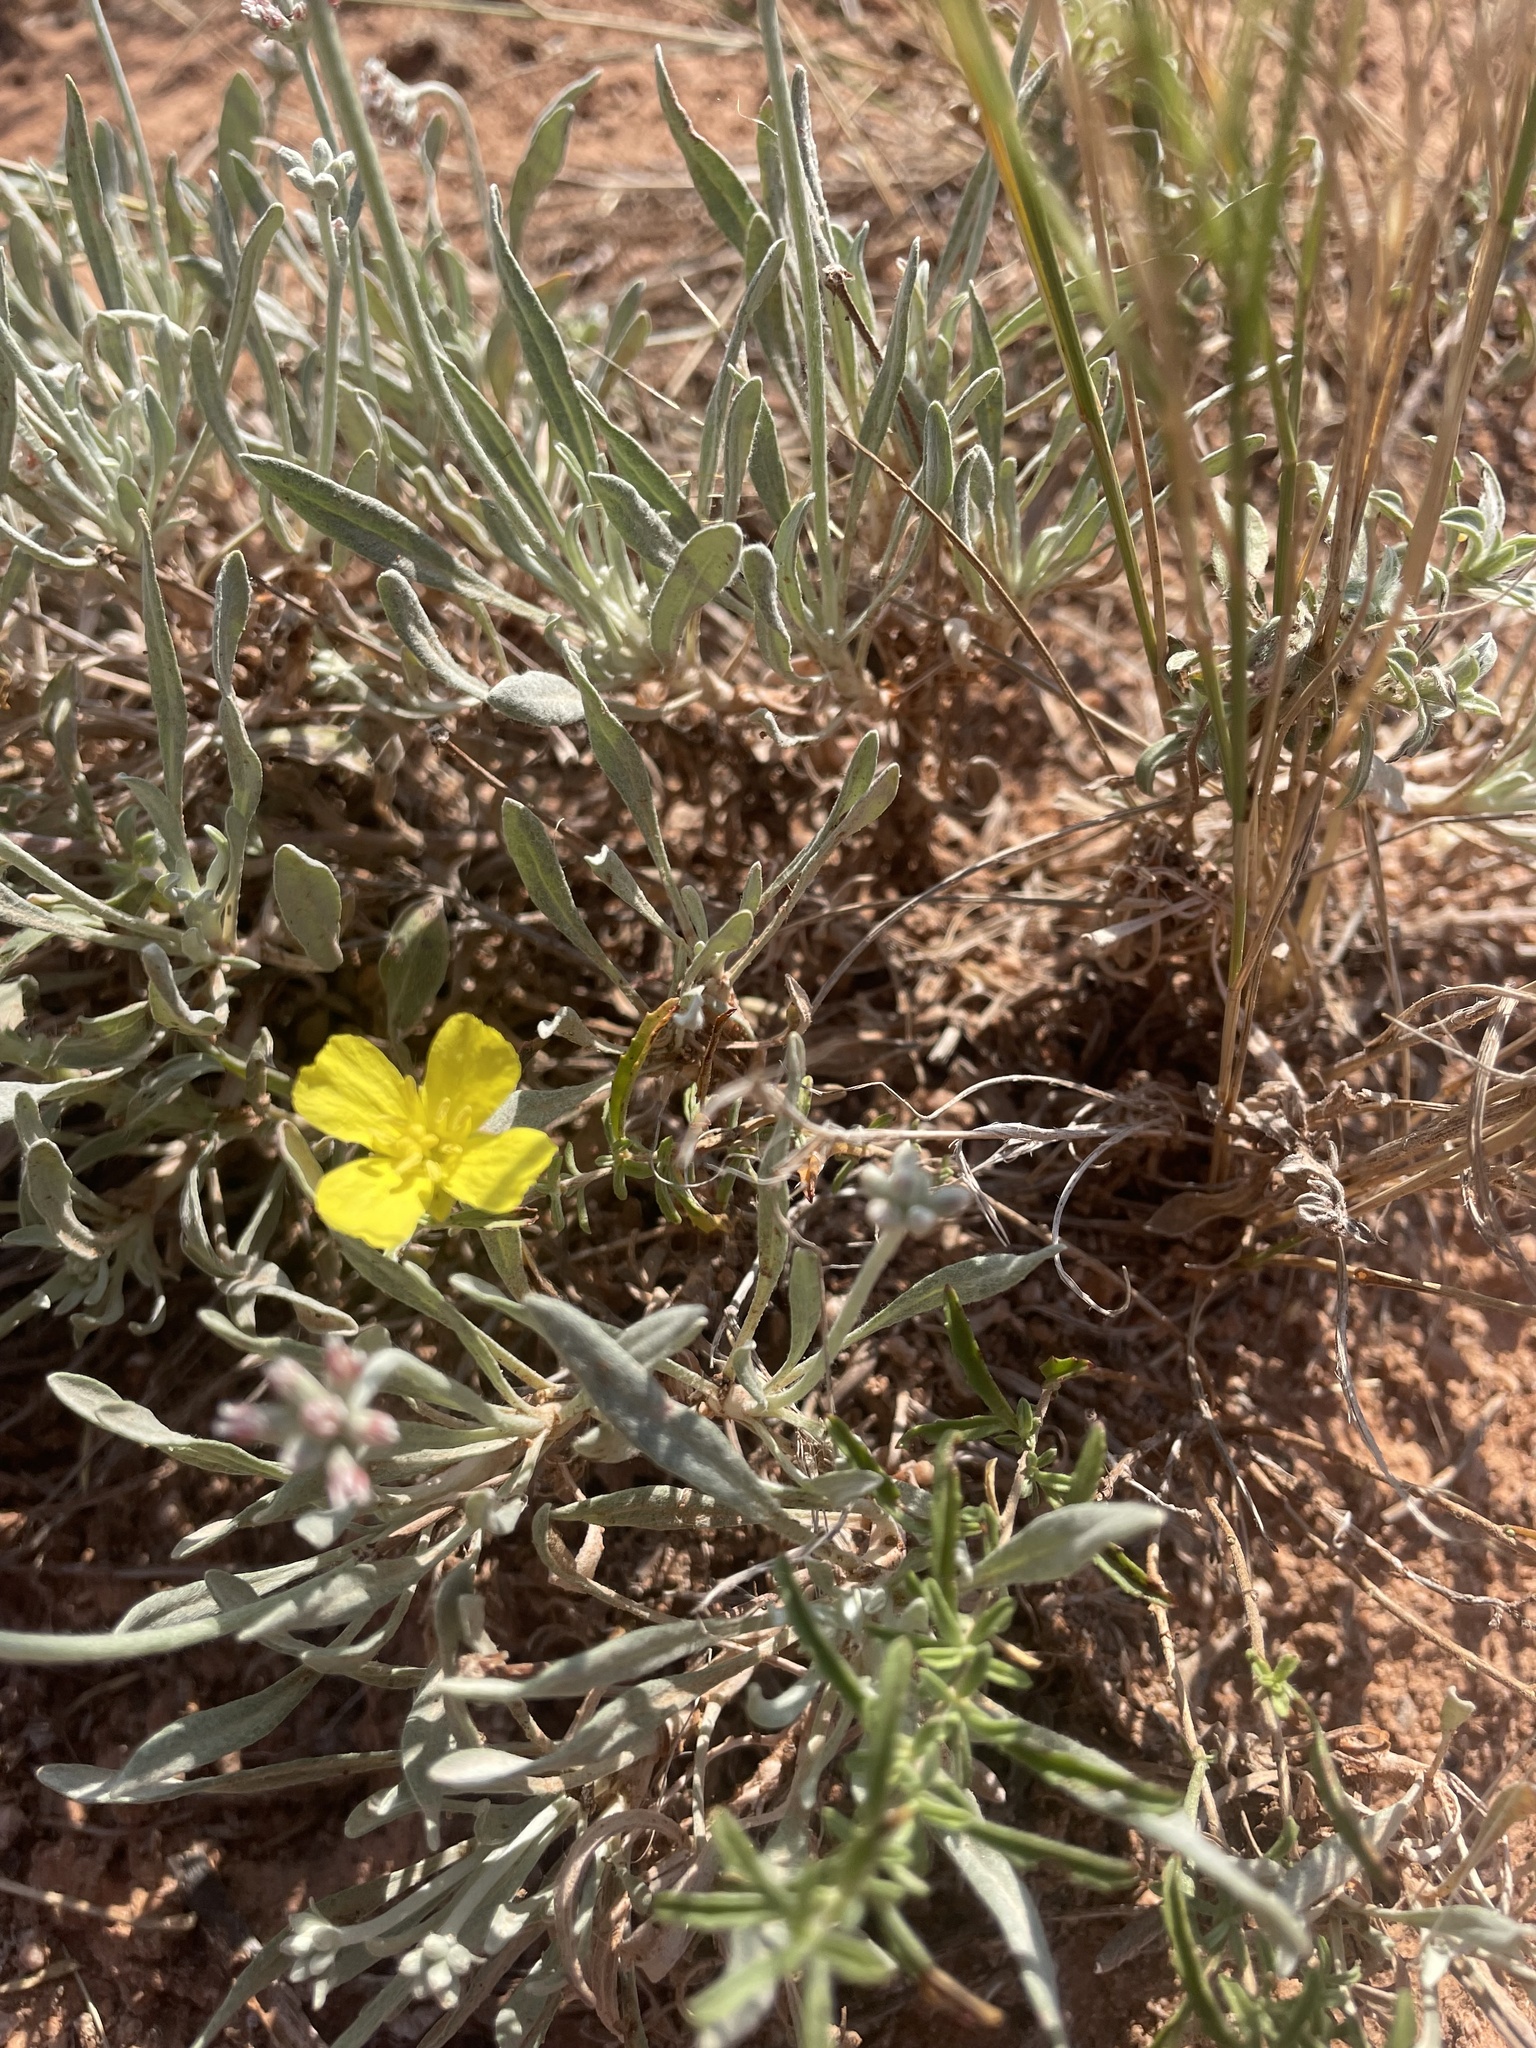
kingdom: Plantae
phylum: Tracheophyta
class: Magnoliopsida
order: Myrtales
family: Onagraceae
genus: Oenothera
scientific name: Oenothera serrulata
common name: Half-shrub calylophus
